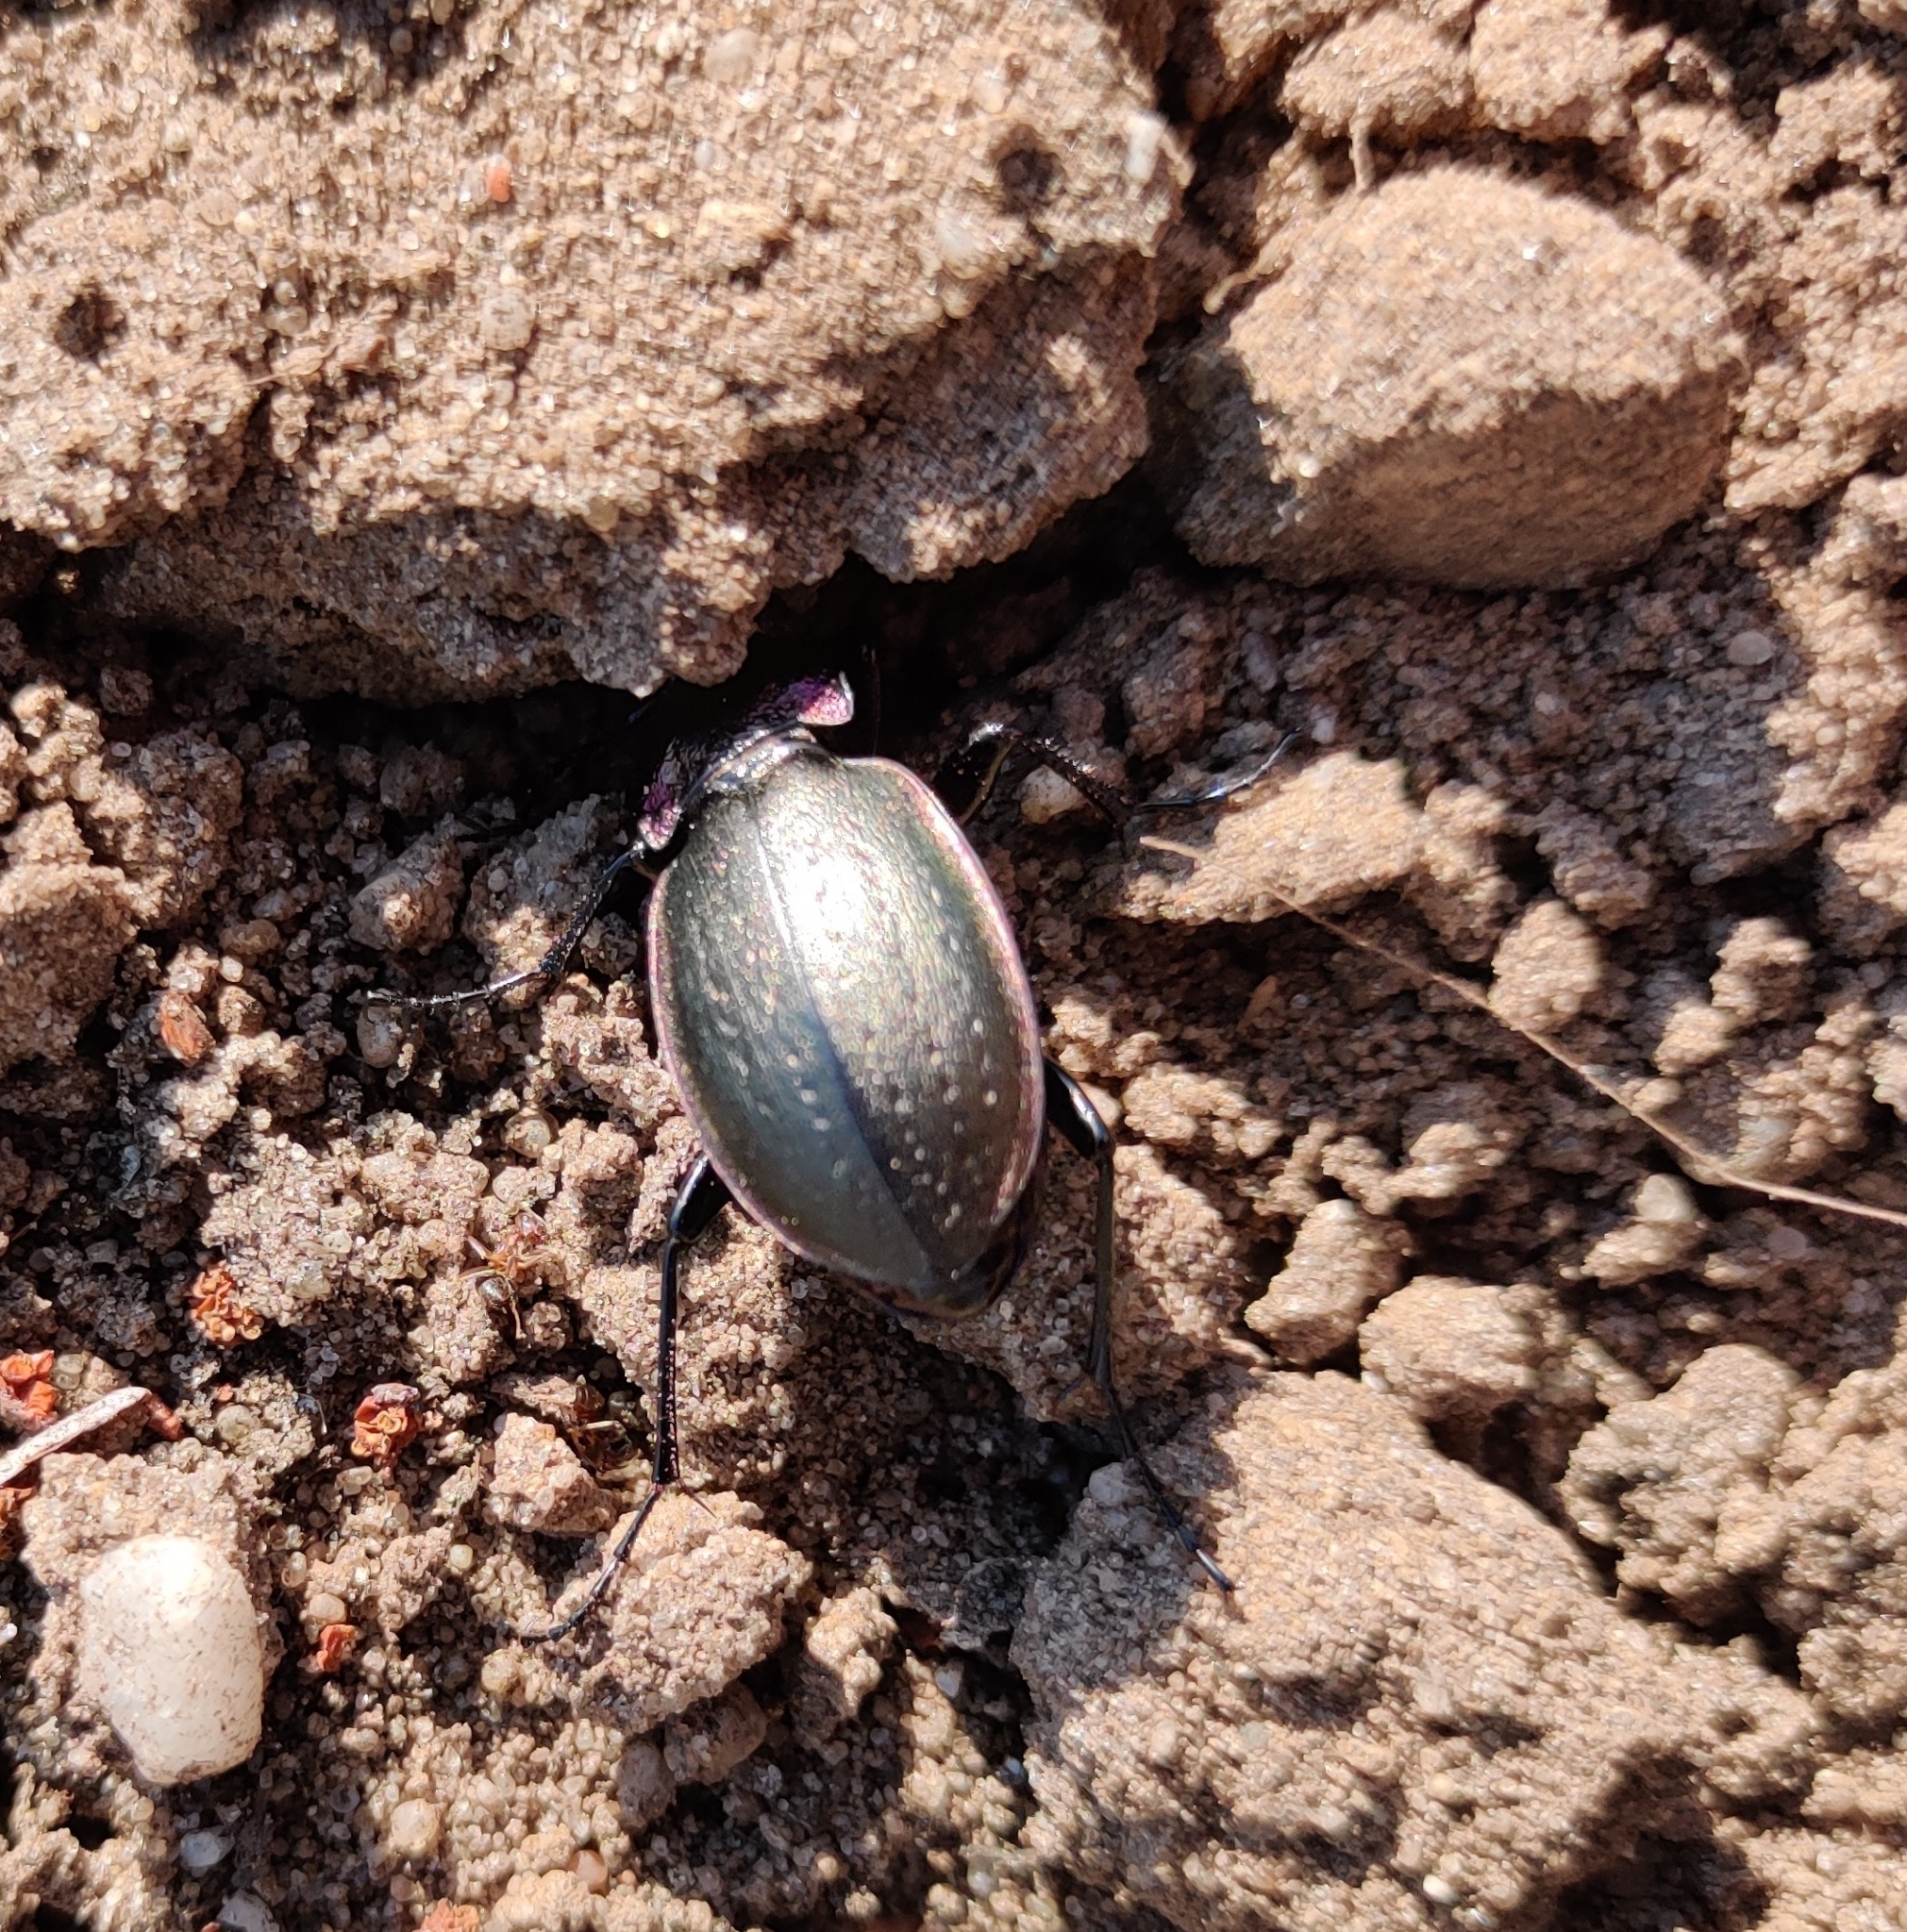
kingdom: Animalia
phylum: Arthropoda
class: Insecta
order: Coleoptera
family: Carabidae
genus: Carabus
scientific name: Carabus nemoralis
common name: European ground beetle
